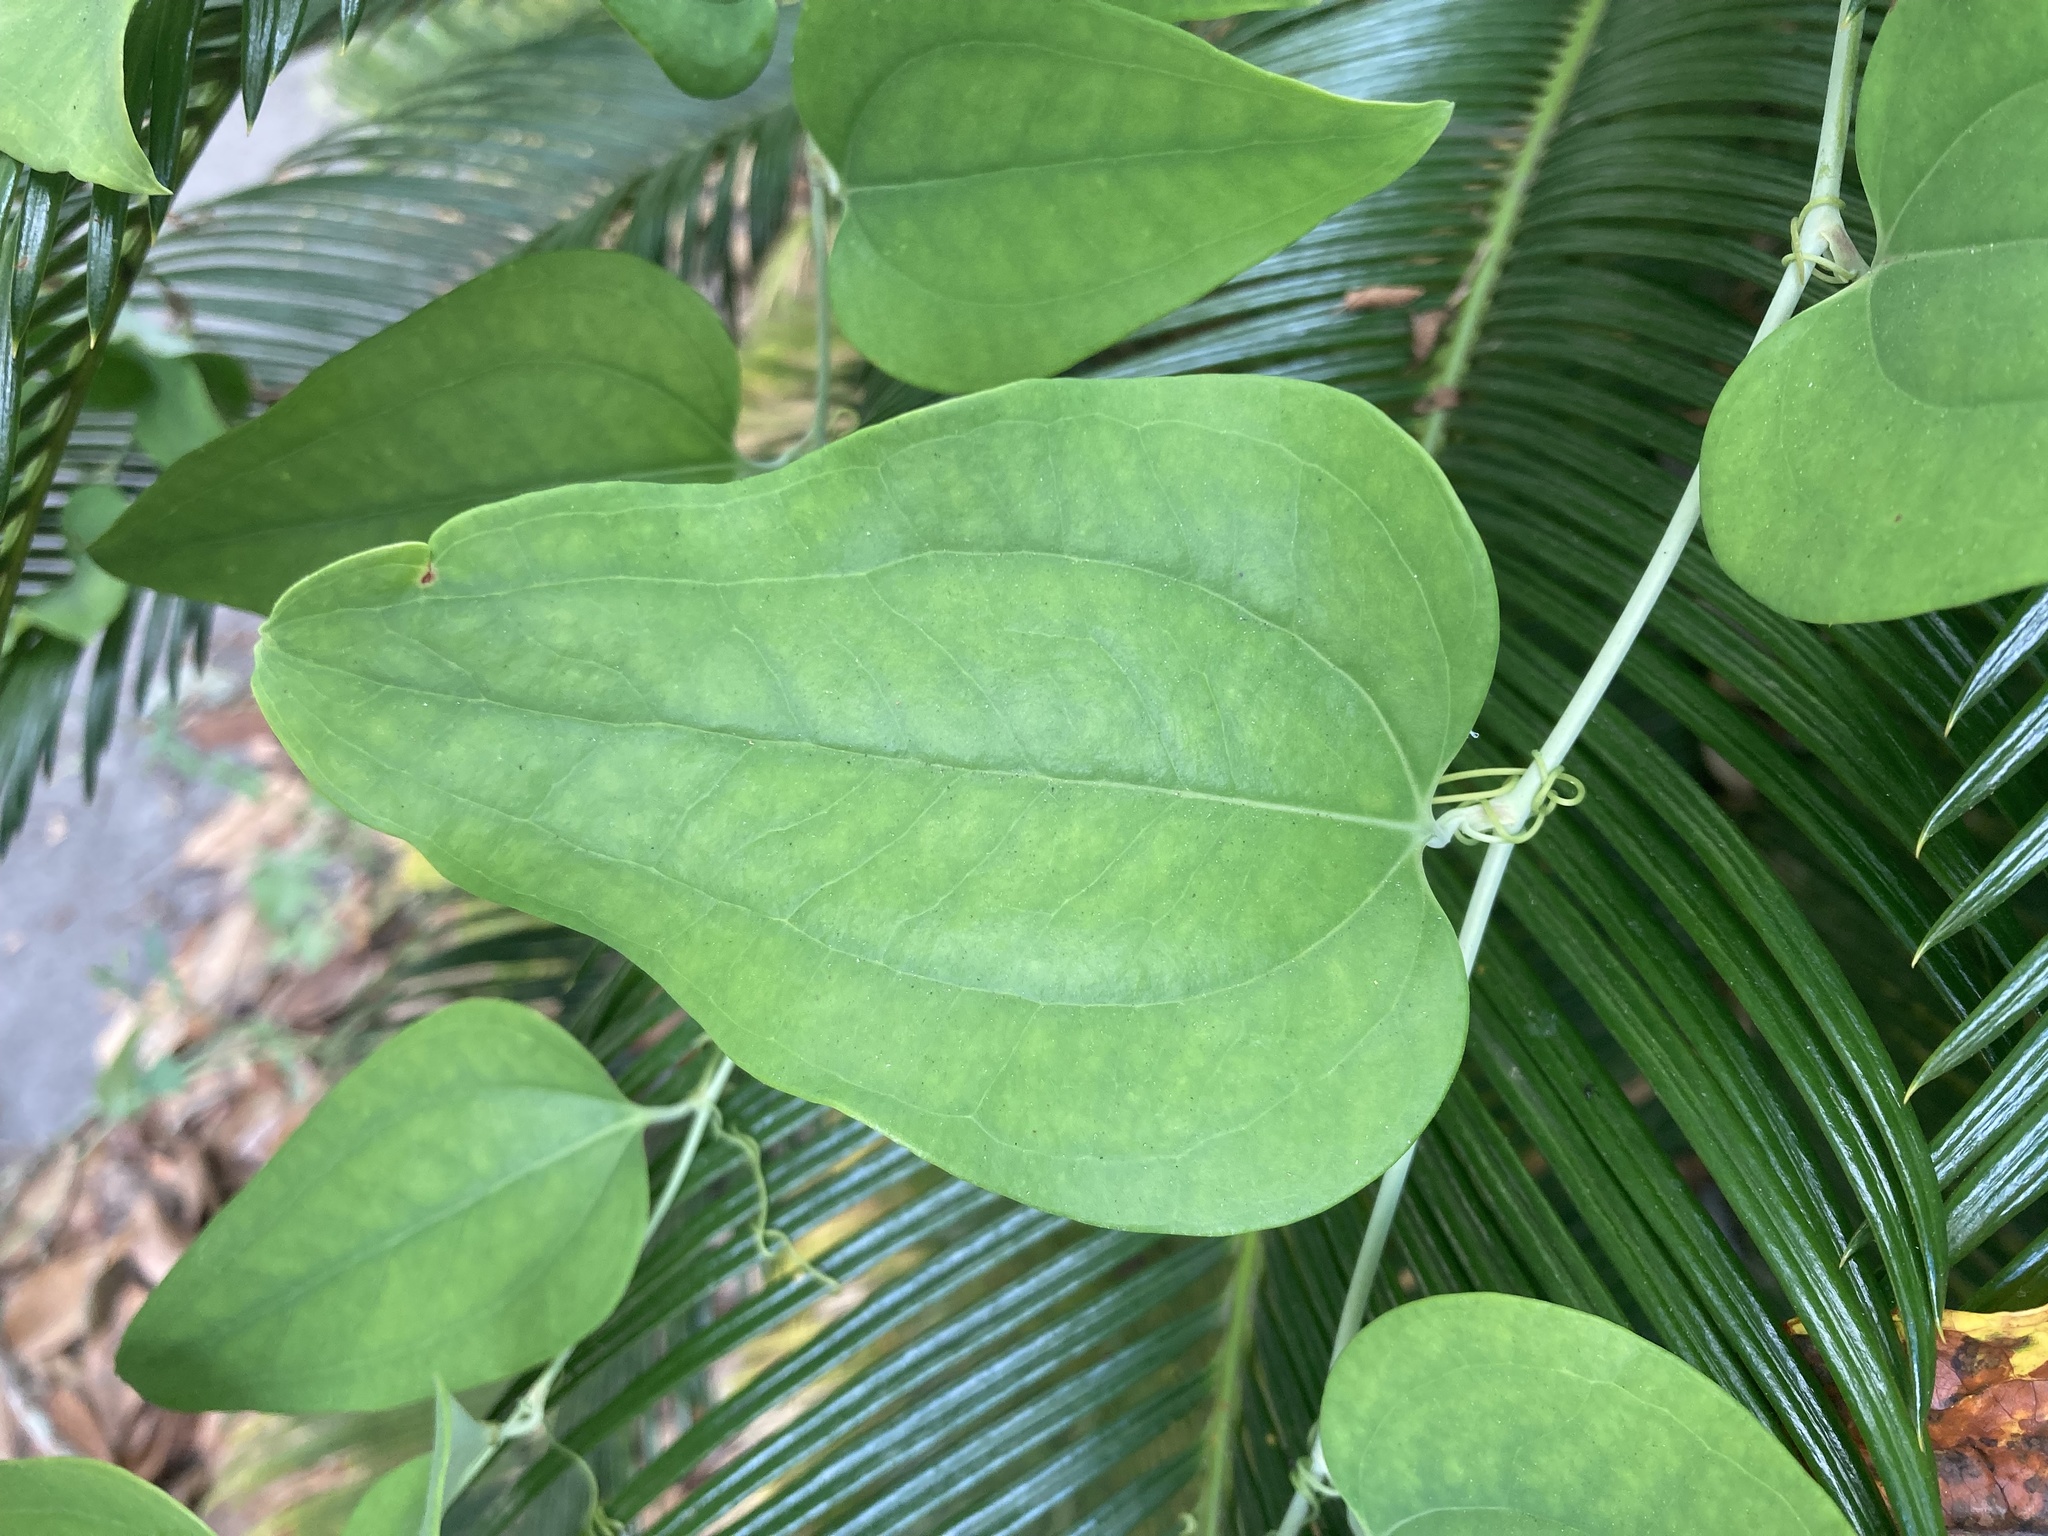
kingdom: Plantae
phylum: Tracheophyta
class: Liliopsida
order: Liliales
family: Smilacaceae
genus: Smilax
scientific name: Smilax glauca
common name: Cat greenbrier
